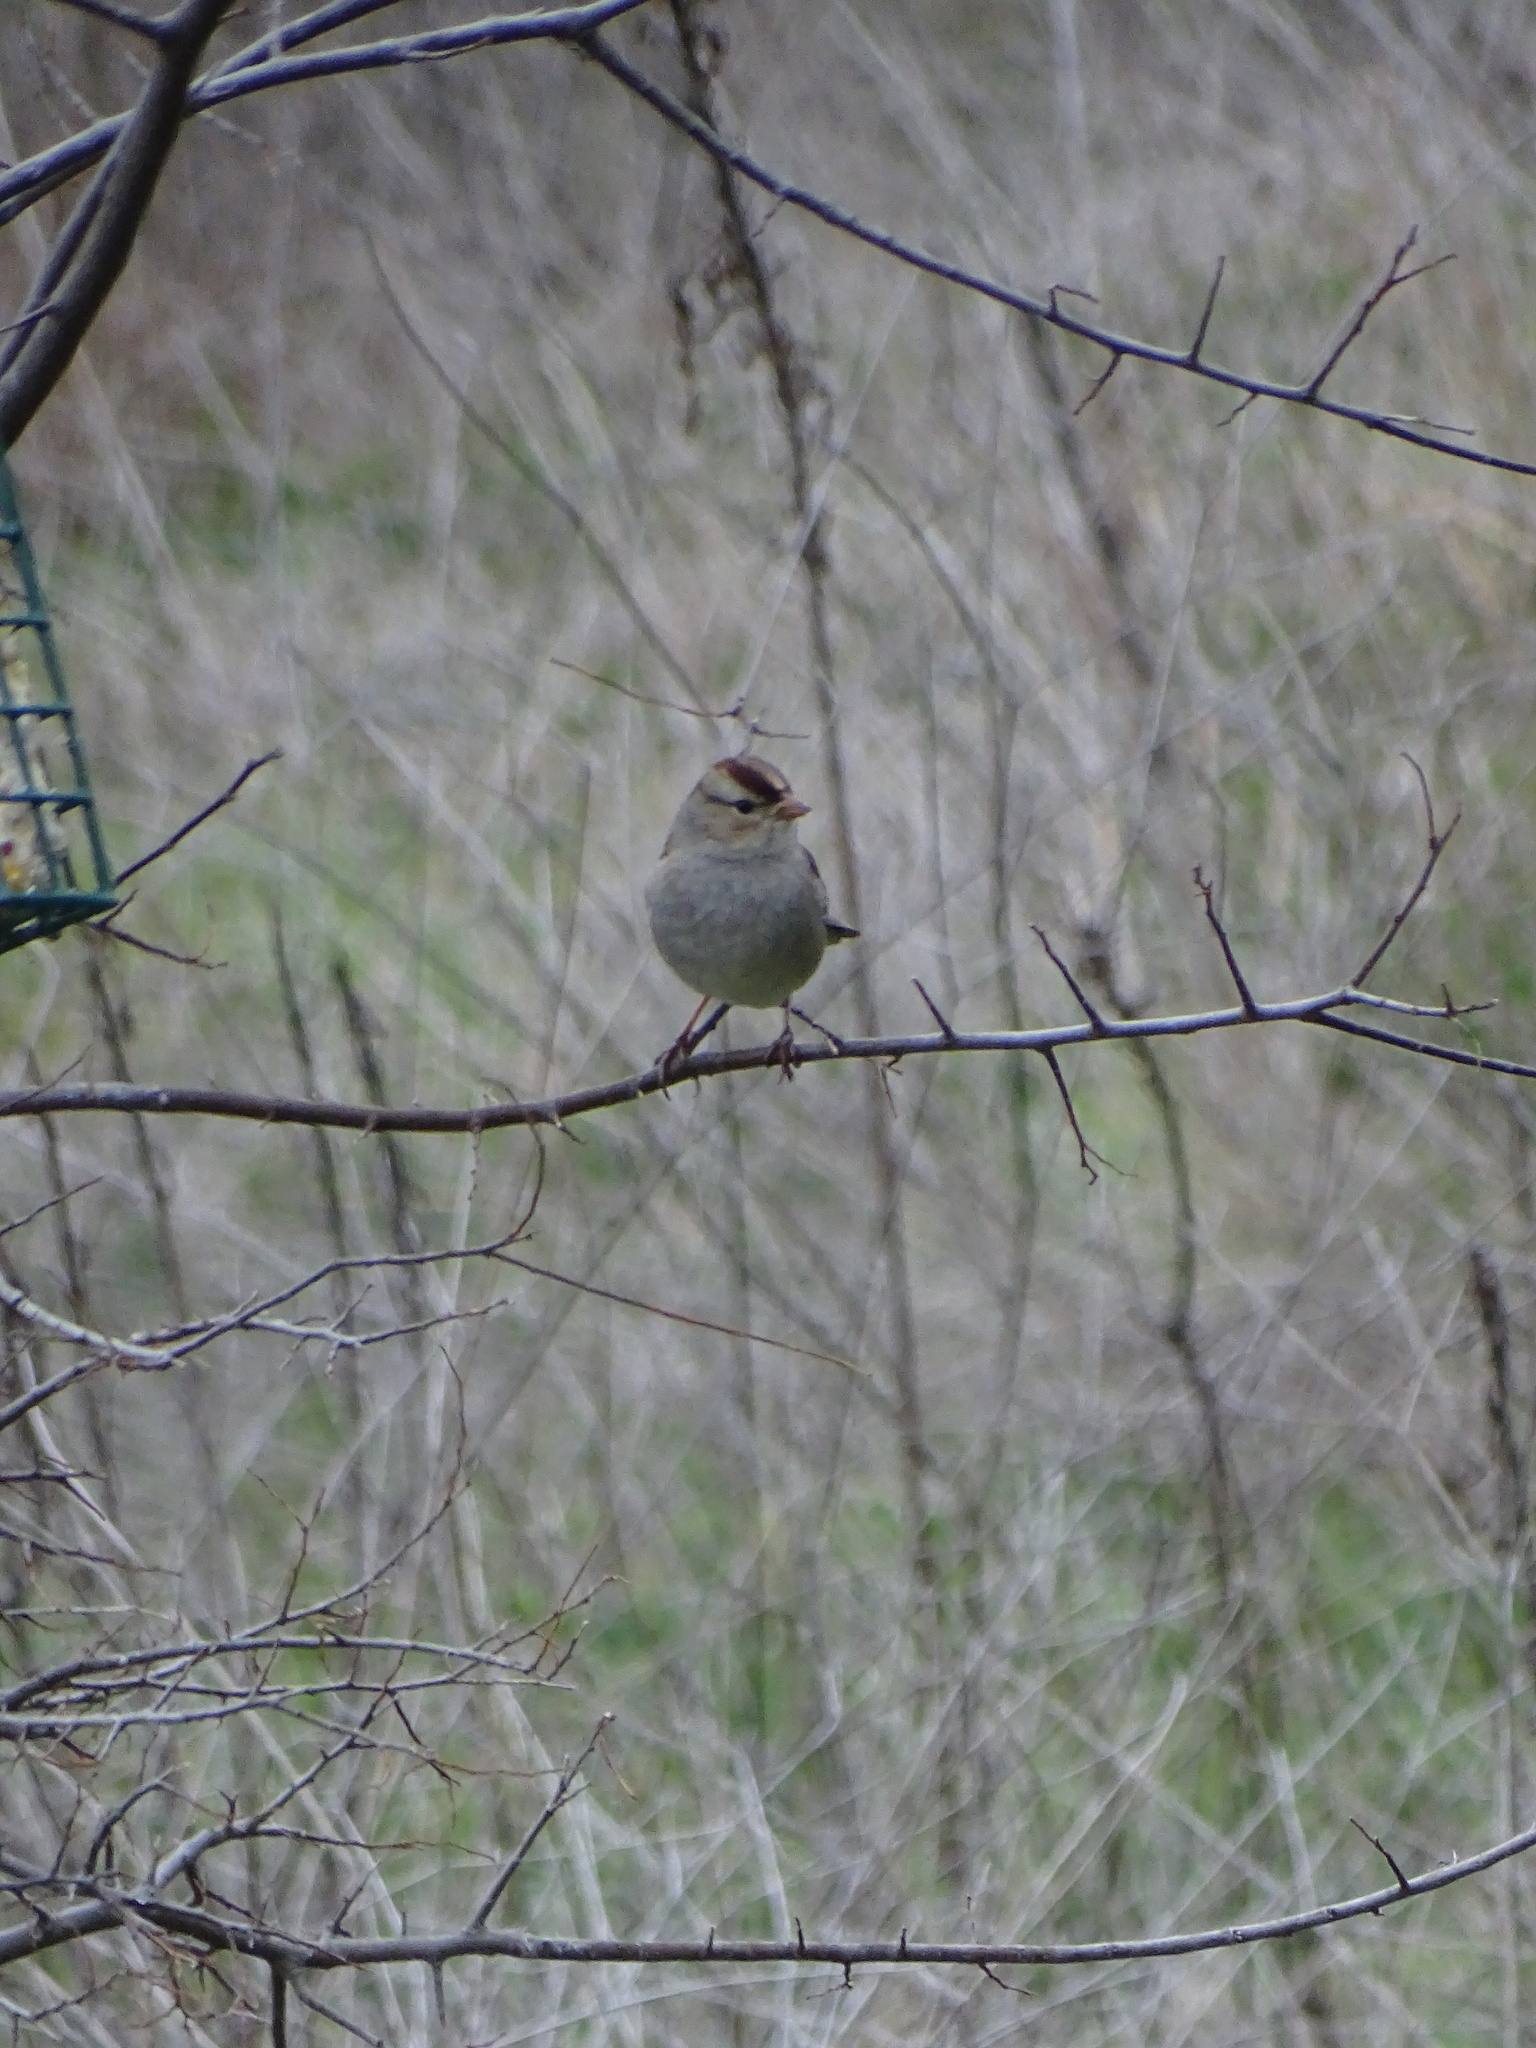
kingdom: Animalia
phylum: Chordata
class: Aves
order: Passeriformes
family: Passerellidae
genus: Zonotrichia
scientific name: Zonotrichia leucophrys
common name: White-crowned sparrow
